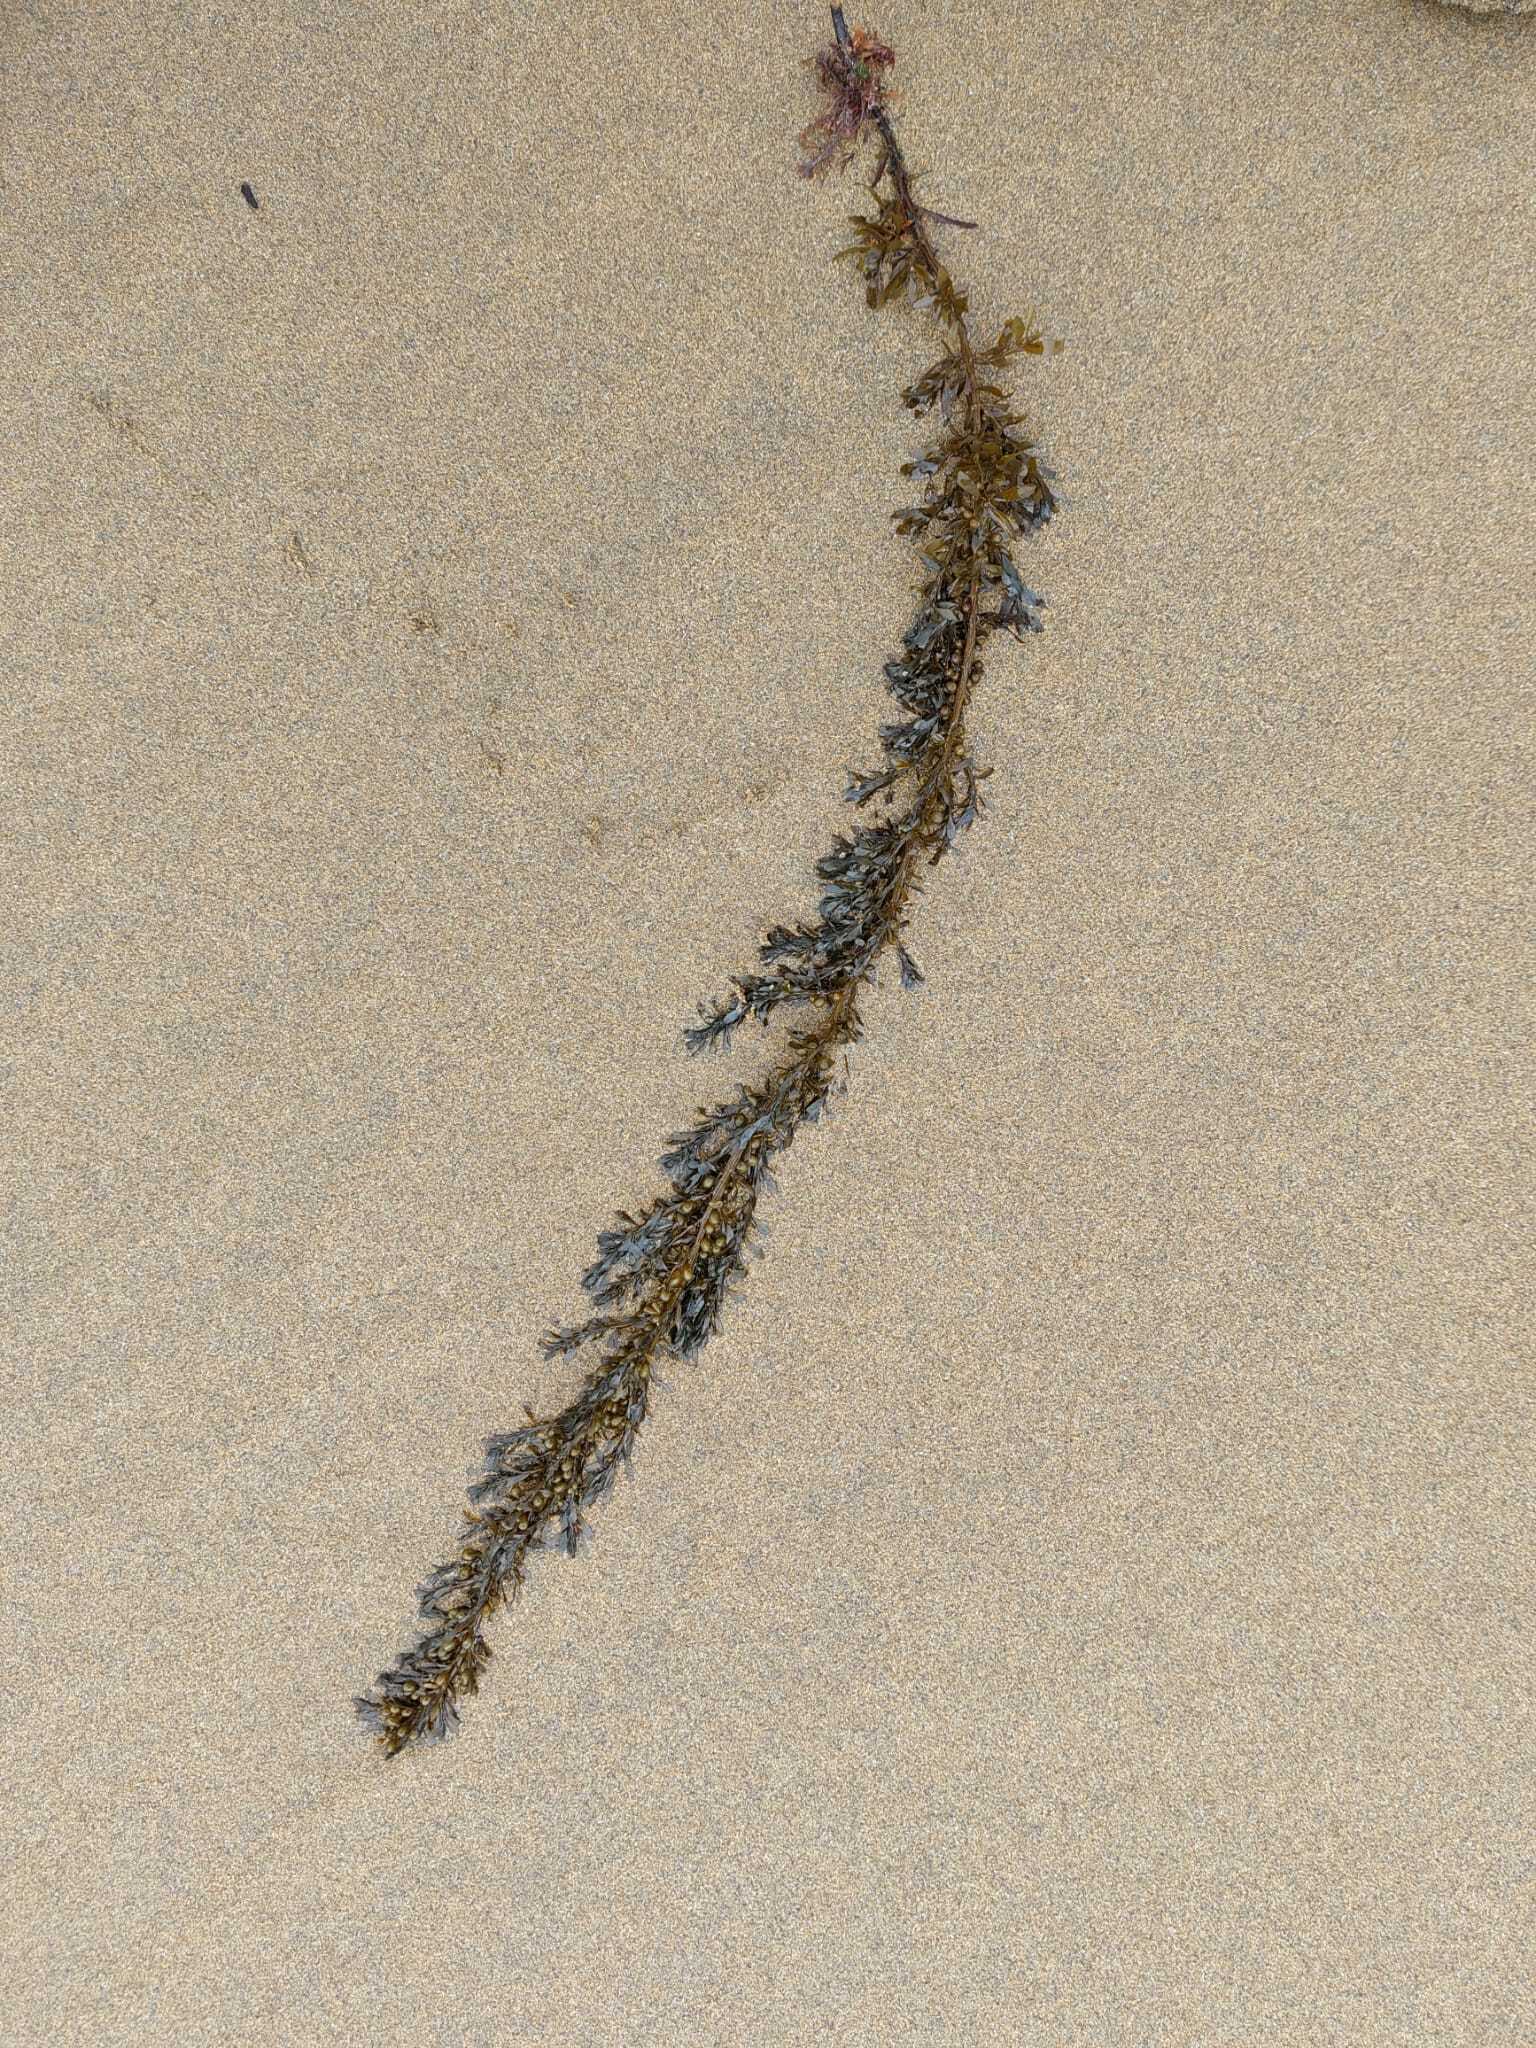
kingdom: Chromista
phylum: Ochrophyta
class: Phaeophyceae
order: Fucales
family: Sargassaceae
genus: Sargassum
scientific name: Sargassum muticum
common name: Japweed
